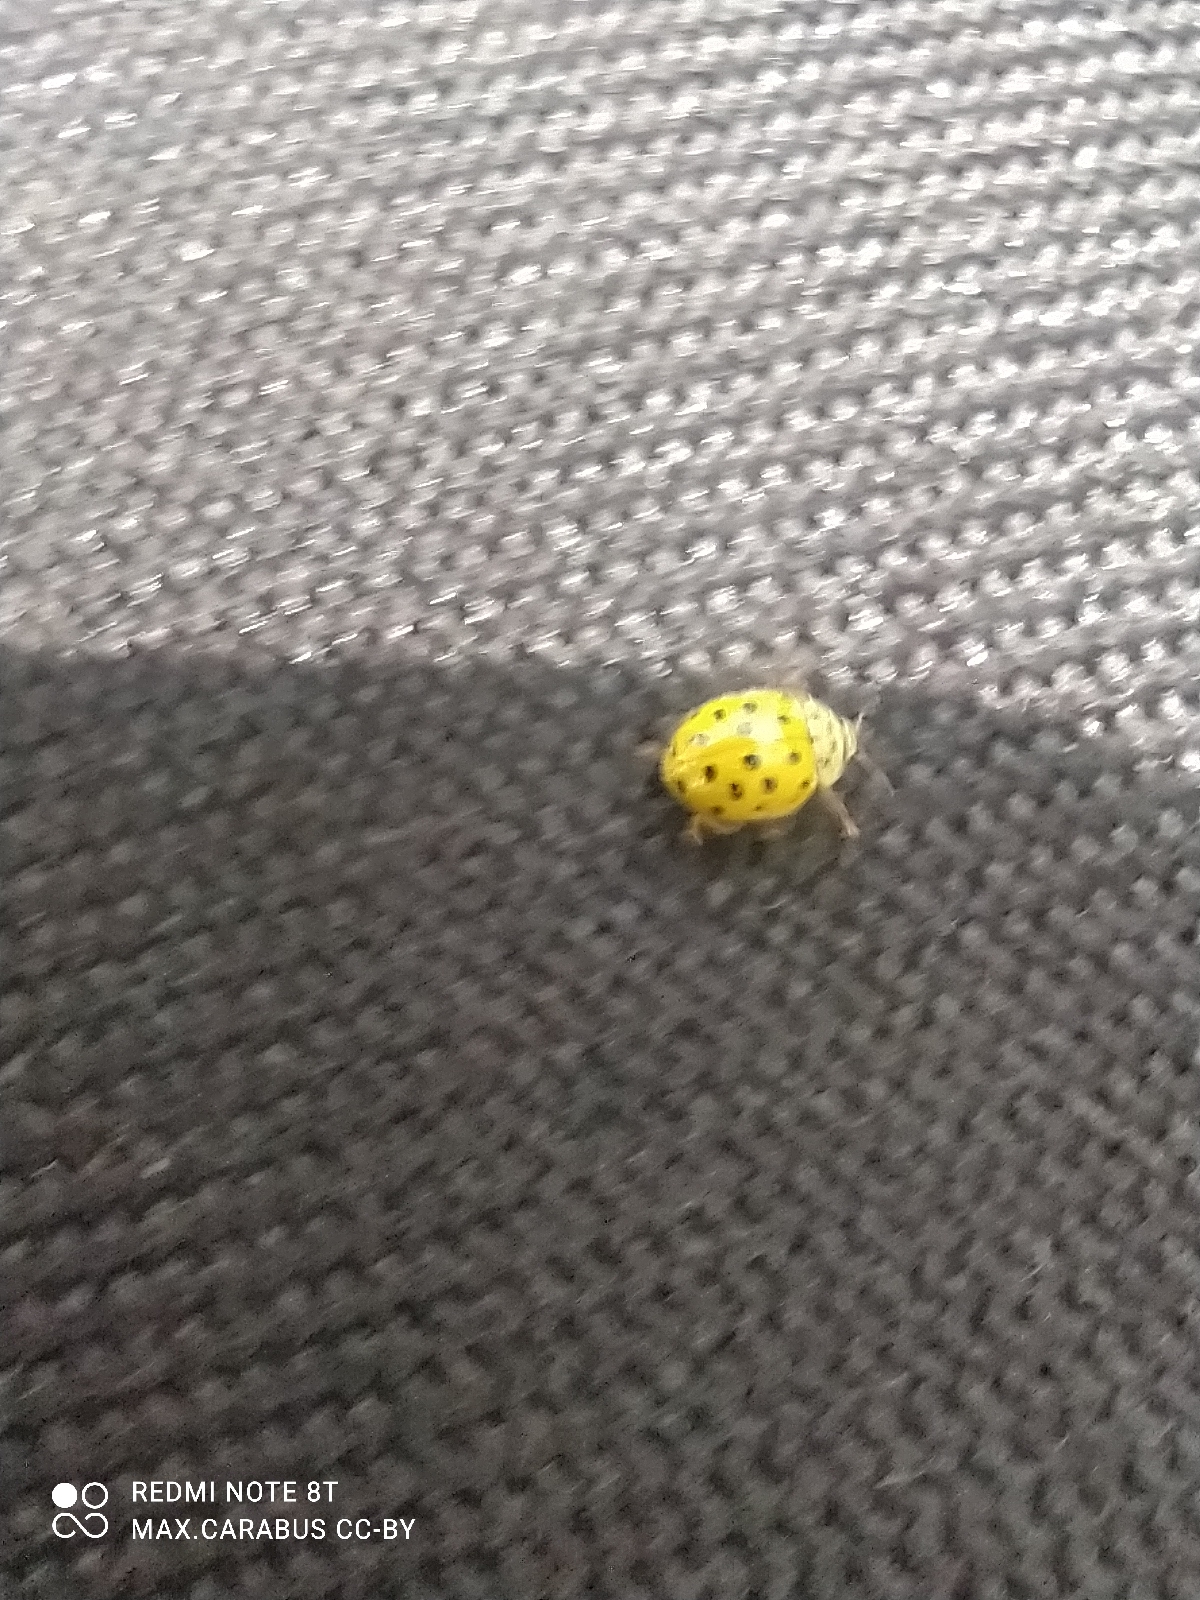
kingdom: Animalia
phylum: Arthropoda
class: Insecta
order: Coleoptera
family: Coccinellidae
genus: Psyllobora
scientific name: Psyllobora vigintiduopunctata
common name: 22-spot ladybird
